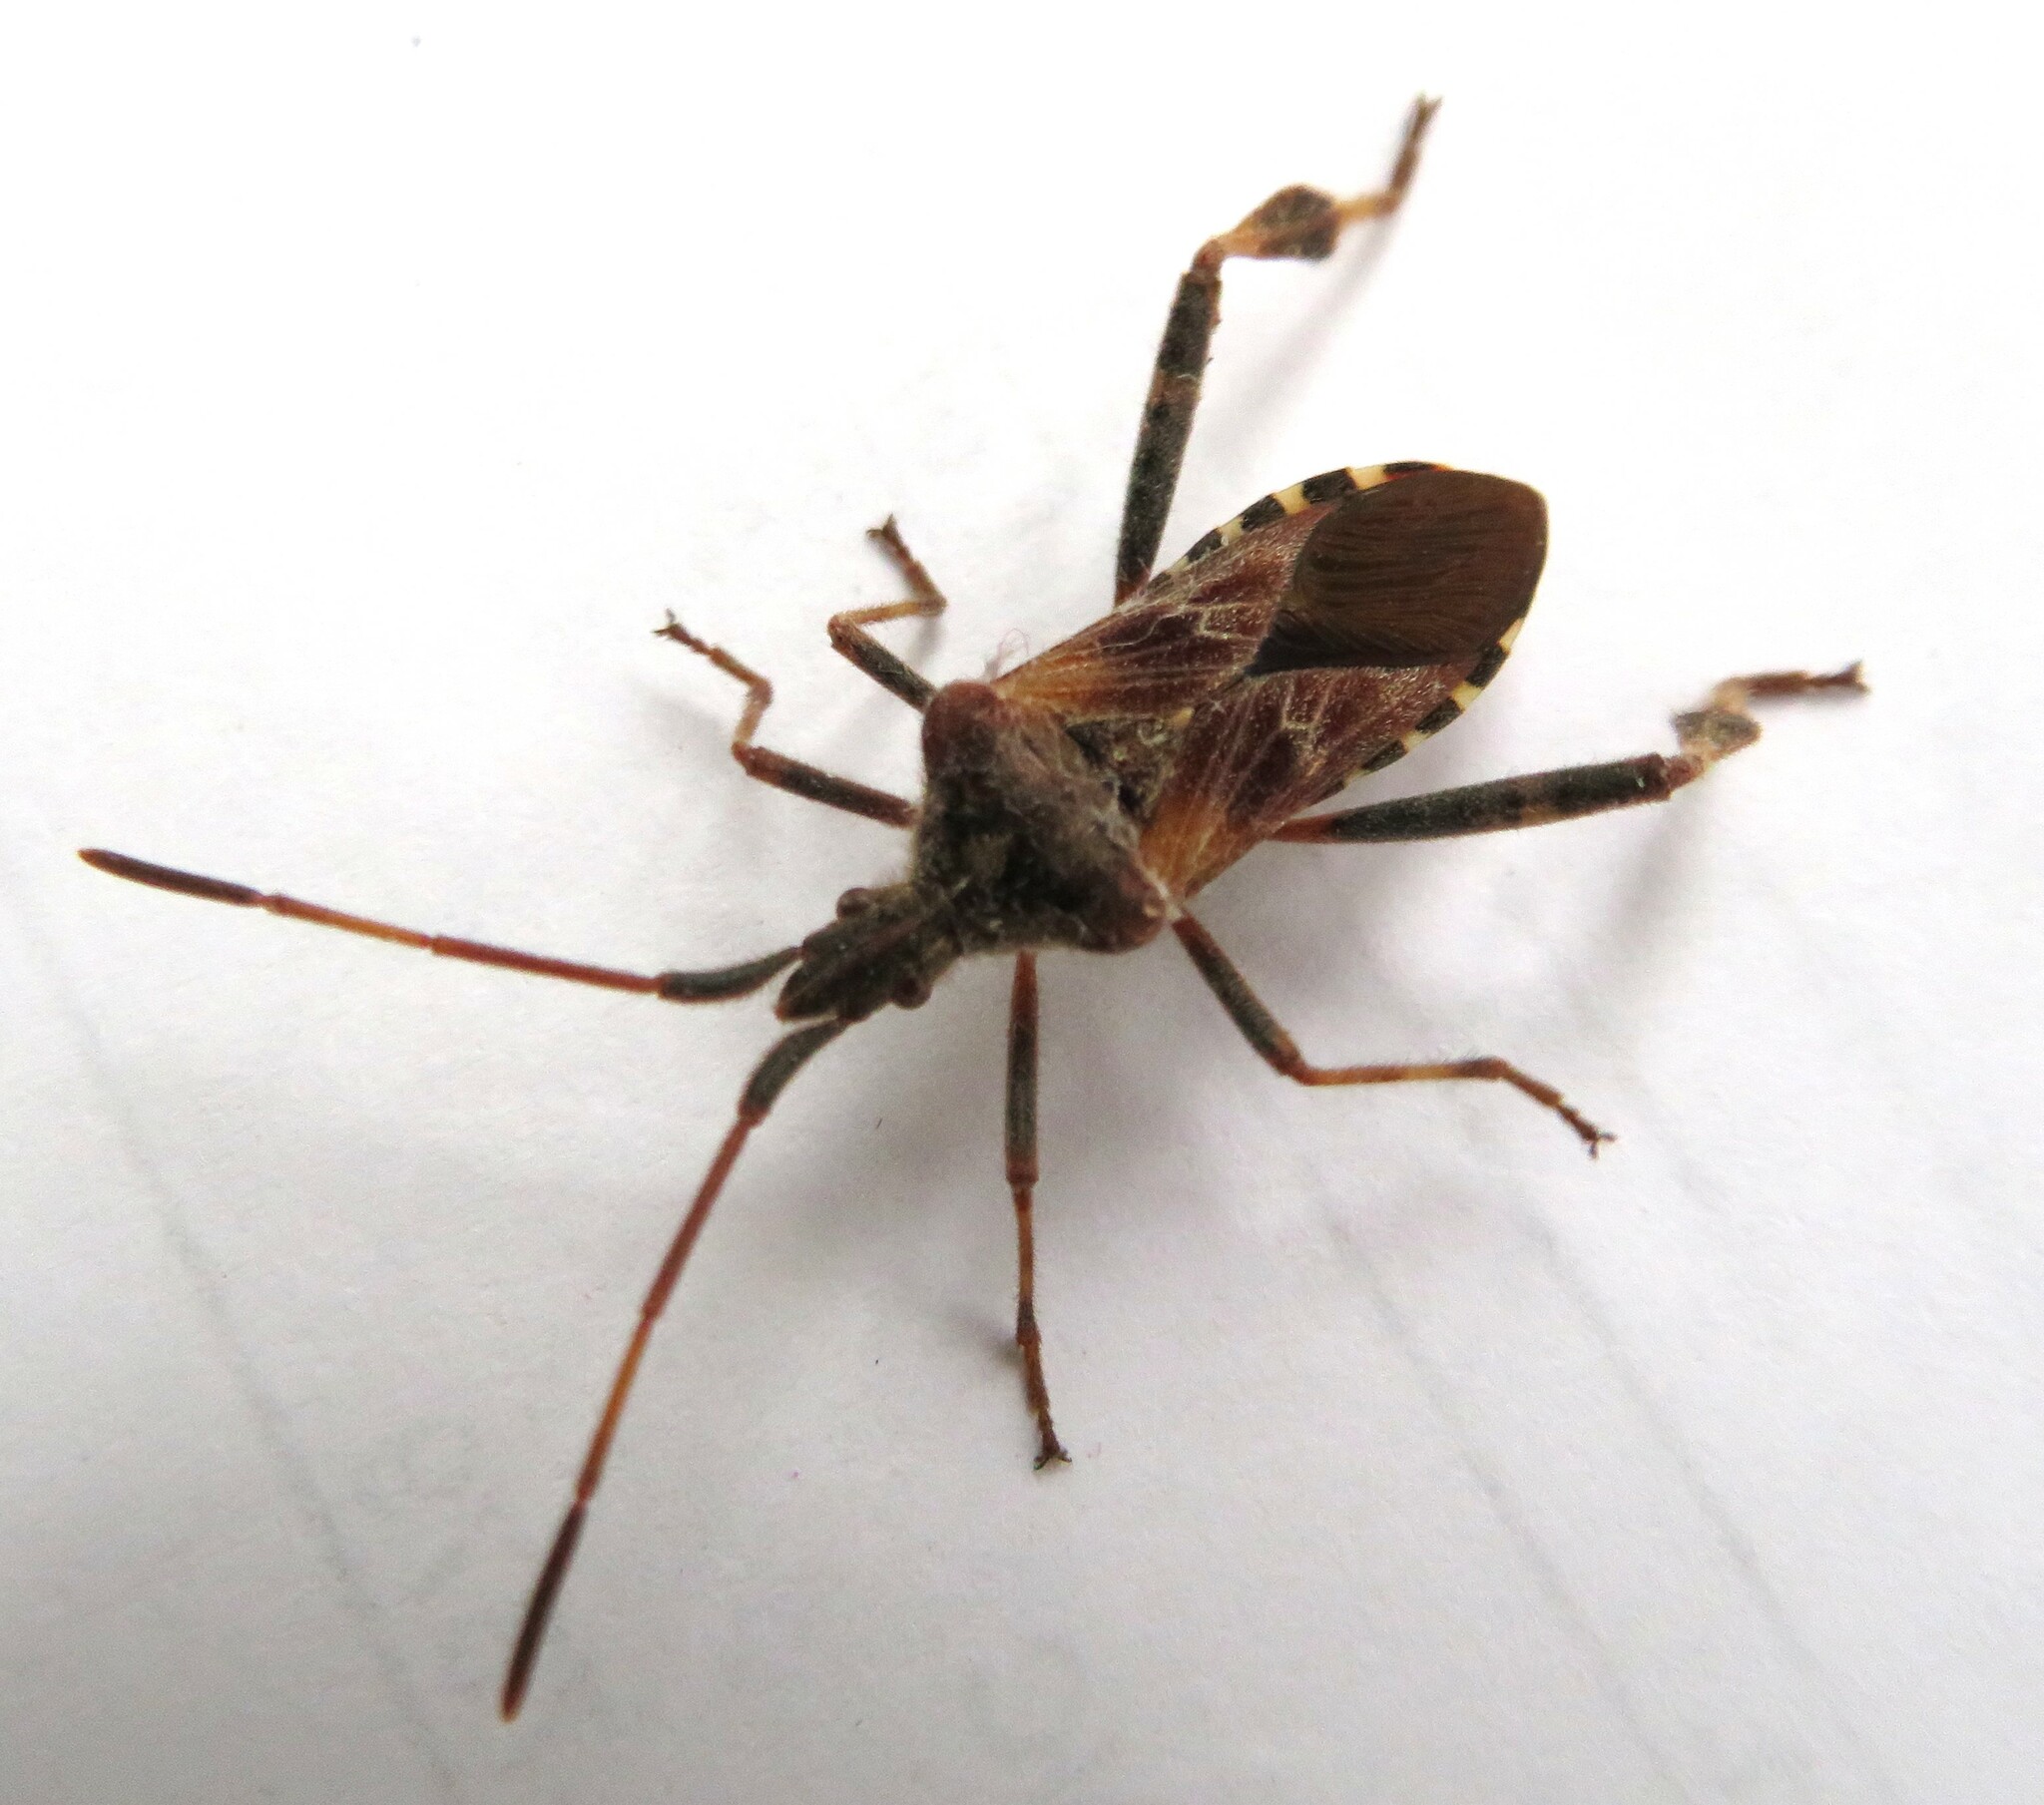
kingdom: Animalia
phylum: Arthropoda
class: Insecta
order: Hemiptera
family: Coreidae
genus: Leptoglossus
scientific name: Leptoglossus occidentalis
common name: Western conifer-seed bug
